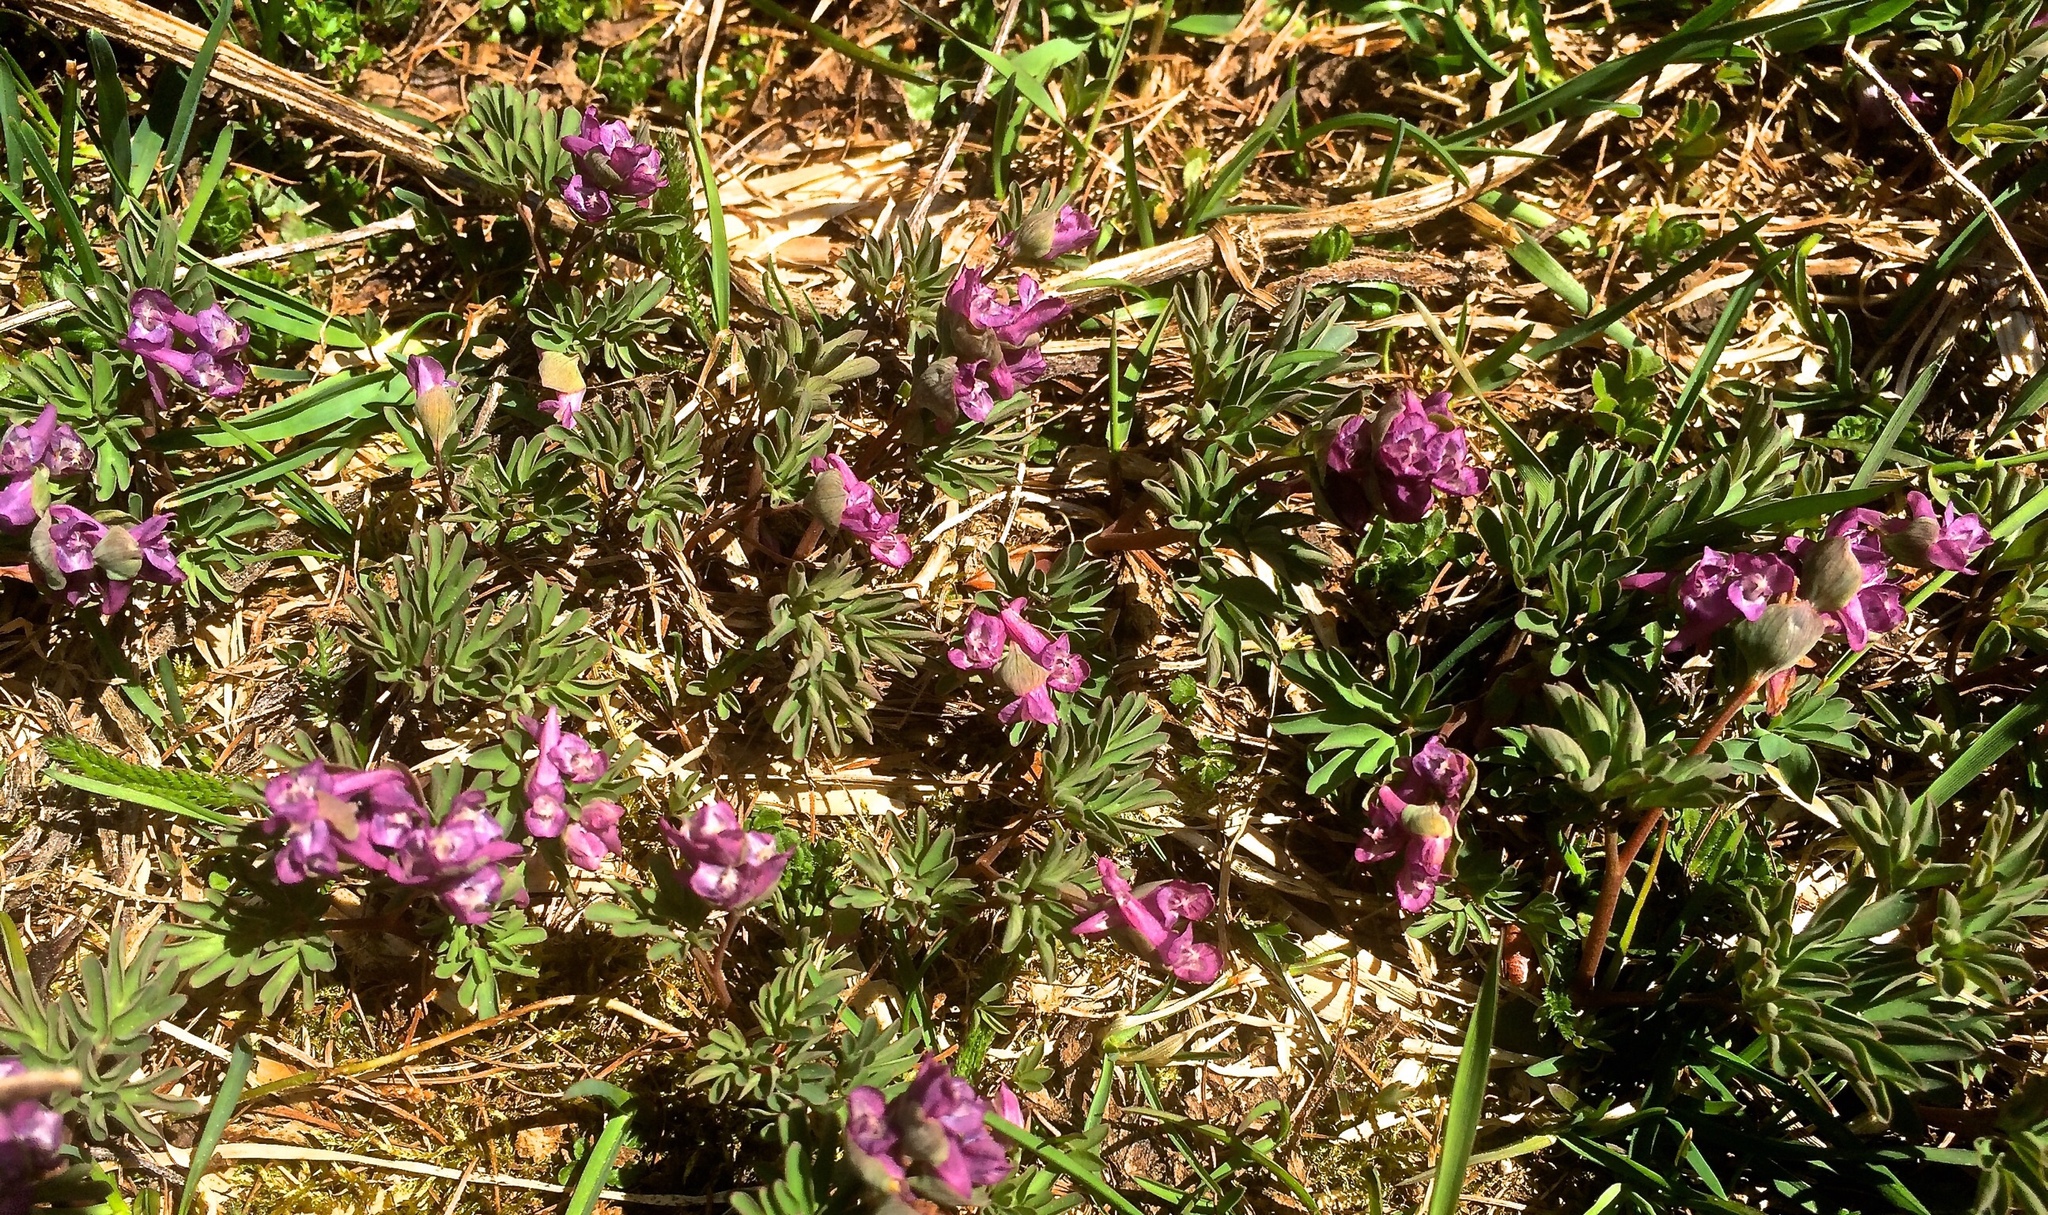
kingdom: Plantae
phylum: Tracheophyta
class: Magnoliopsida
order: Ranunculales
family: Papaveraceae
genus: Corydalis
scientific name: Corydalis intermedia
